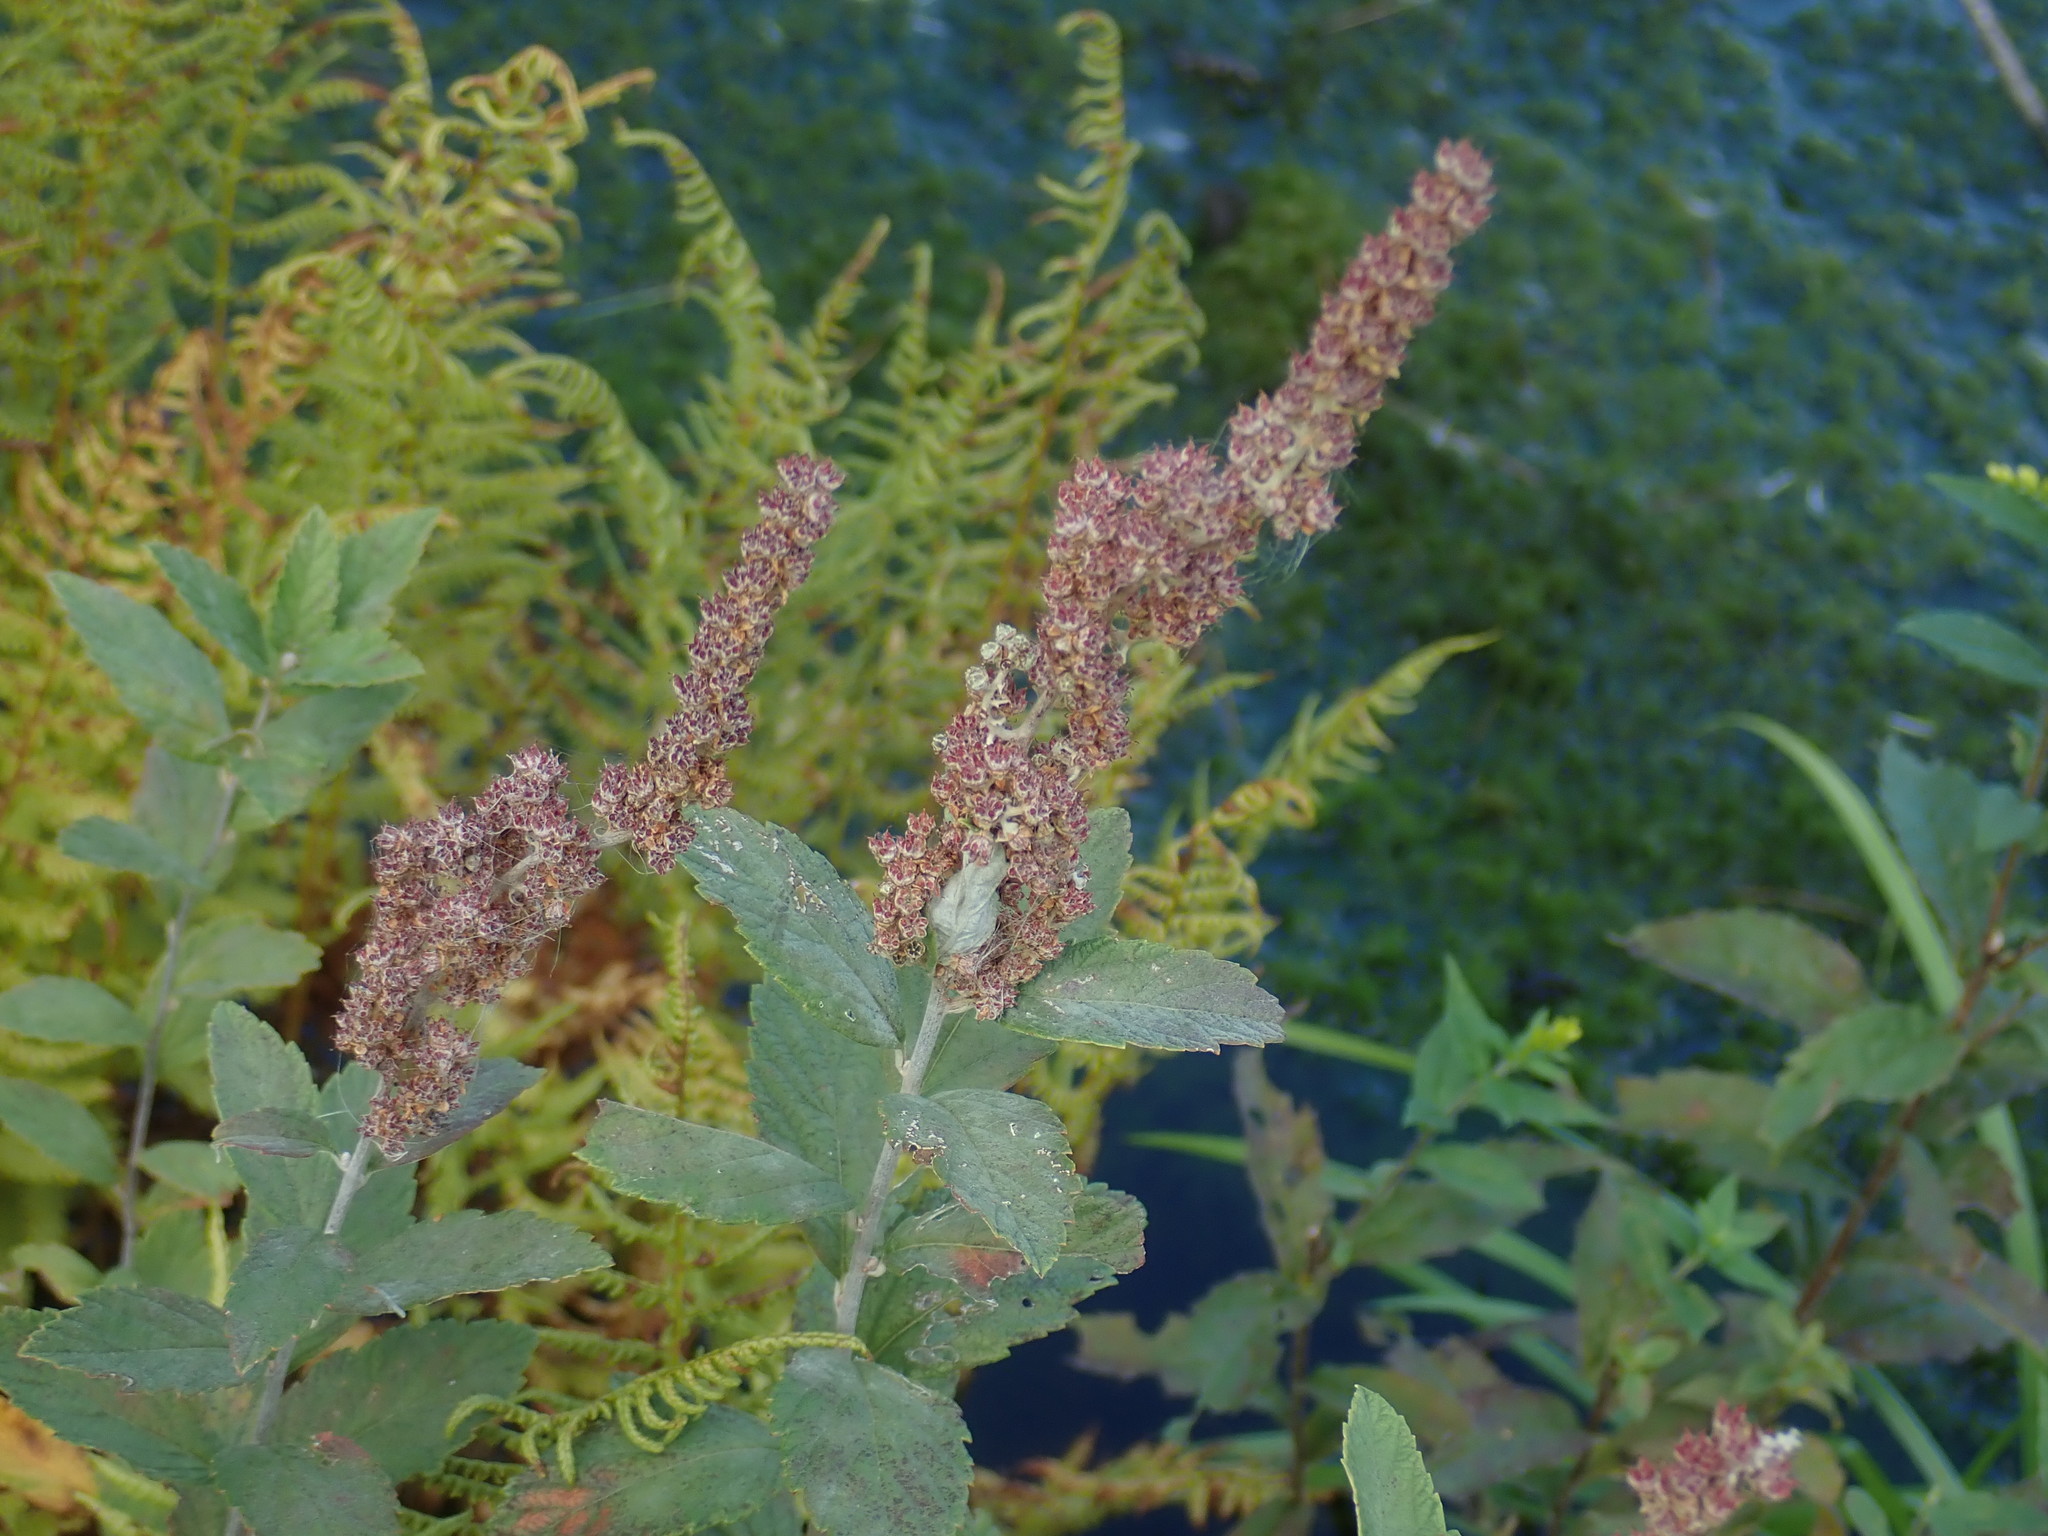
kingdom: Plantae
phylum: Tracheophyta
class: Magnoliopsida
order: Rosales
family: Rosaceae
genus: Spiraea
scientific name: Spiraea tomentosa
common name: Hardhack
